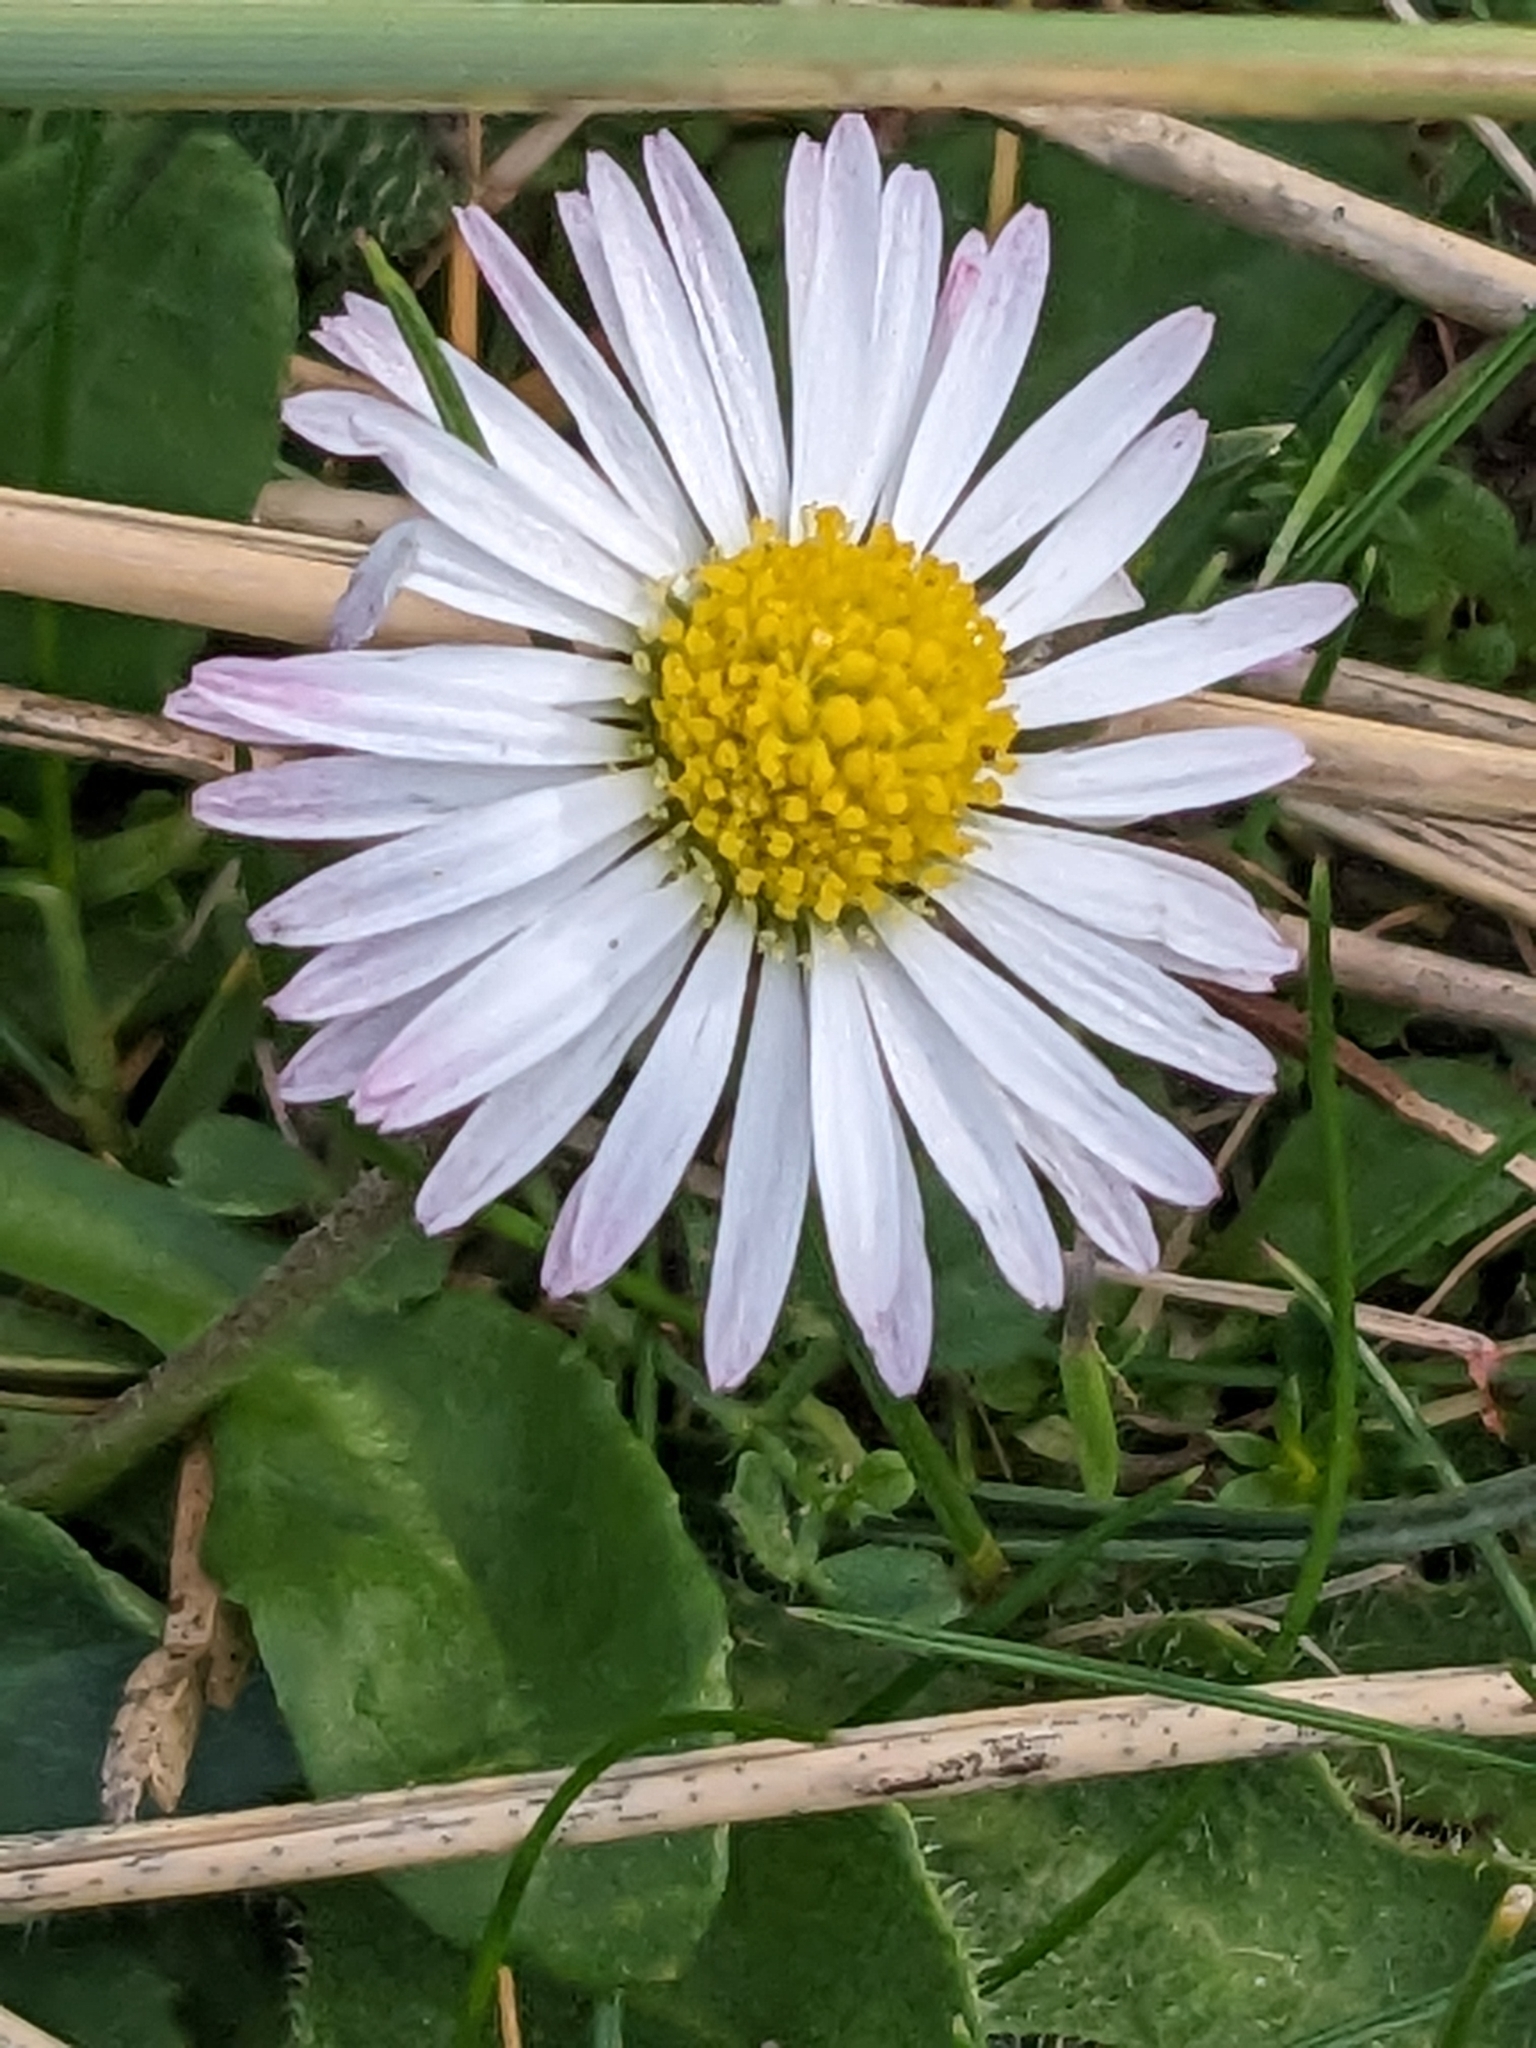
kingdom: Plantae
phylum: Tracheophyta
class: Magnoliopsida
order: Asterales
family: Asteraceae
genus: Bellis
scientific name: Bellis perennis
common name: Lawndaisy
